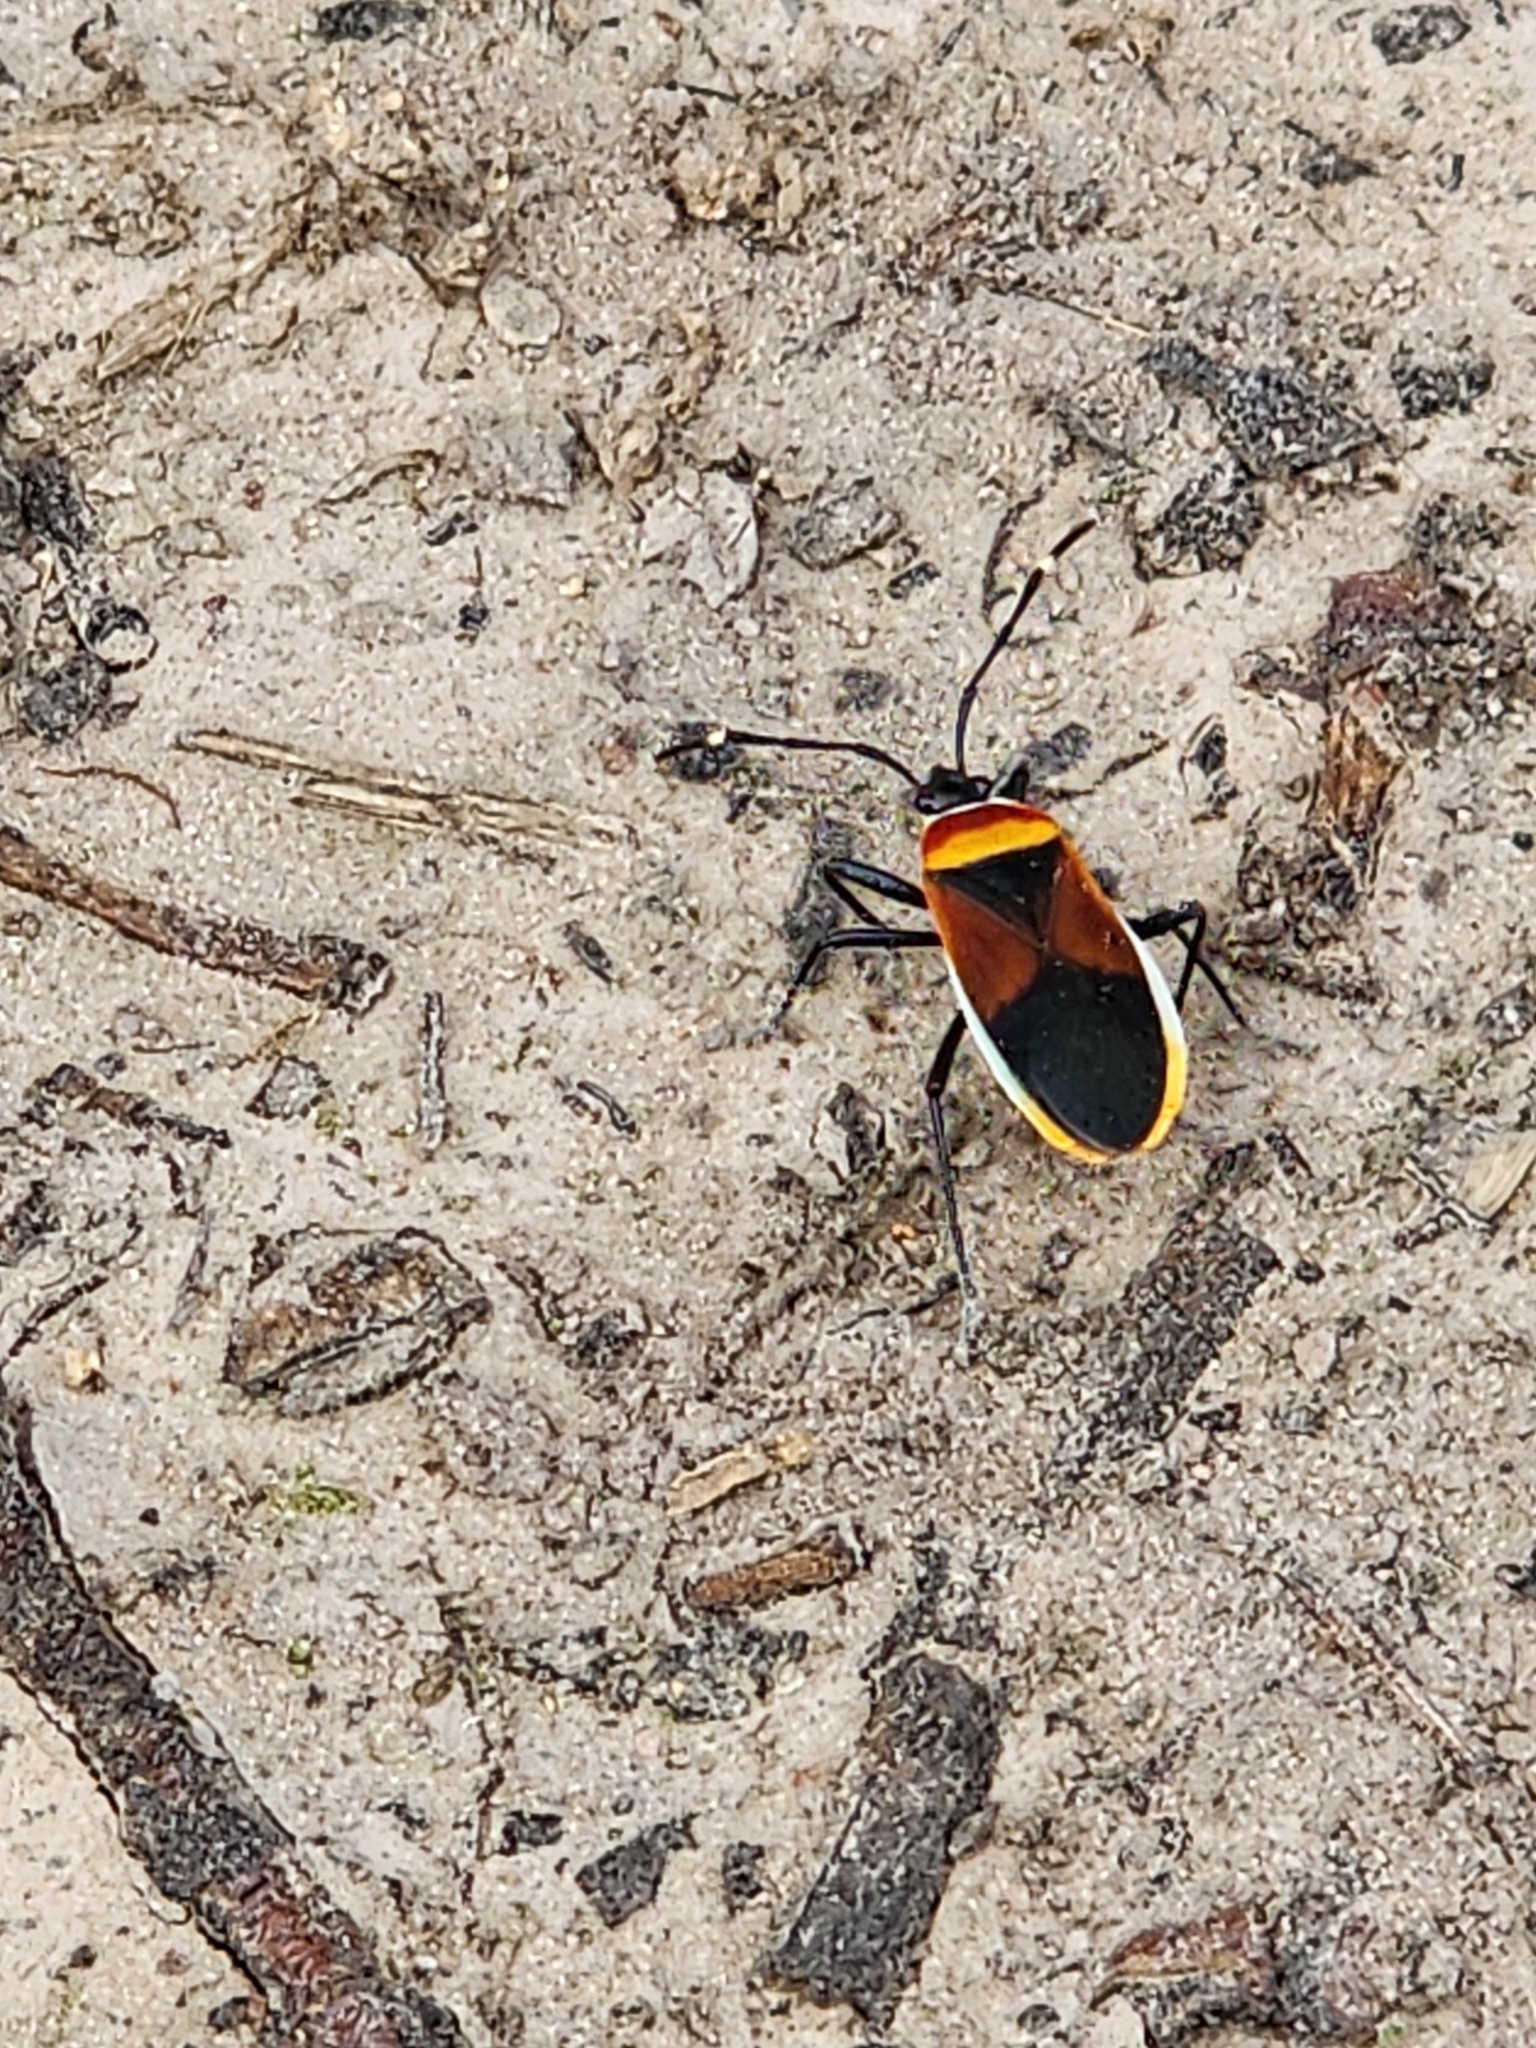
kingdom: Animalia
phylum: Arthropoda
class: Insecta
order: Hemiptera
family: Pyrrhocoridae
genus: Dindymus
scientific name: Dindymus
